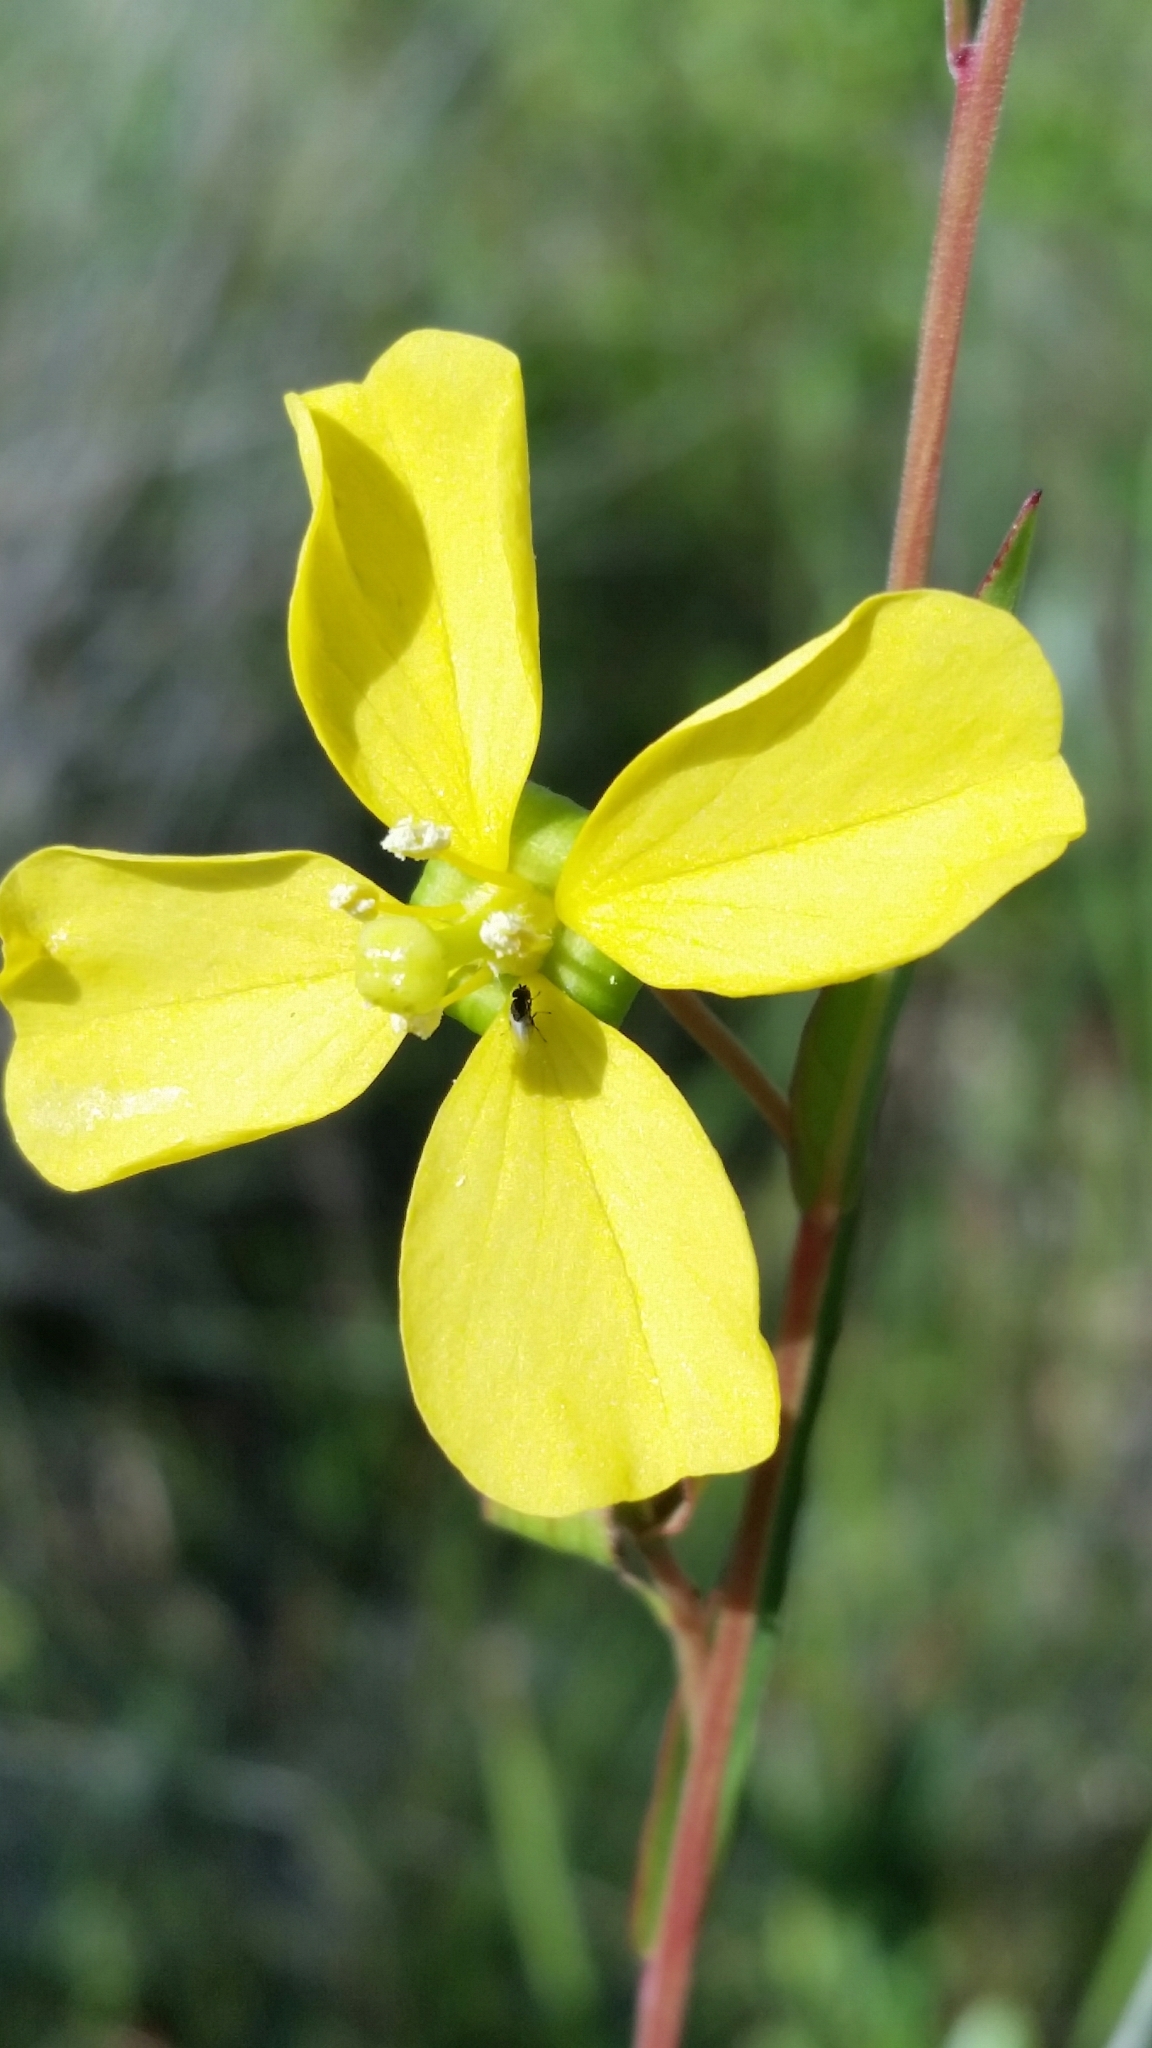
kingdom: Plantae
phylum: Tracheophyta
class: Magnoliopsida
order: Myrtales
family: Onagraceae
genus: Ludwigia
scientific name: Ludwigia maritima
